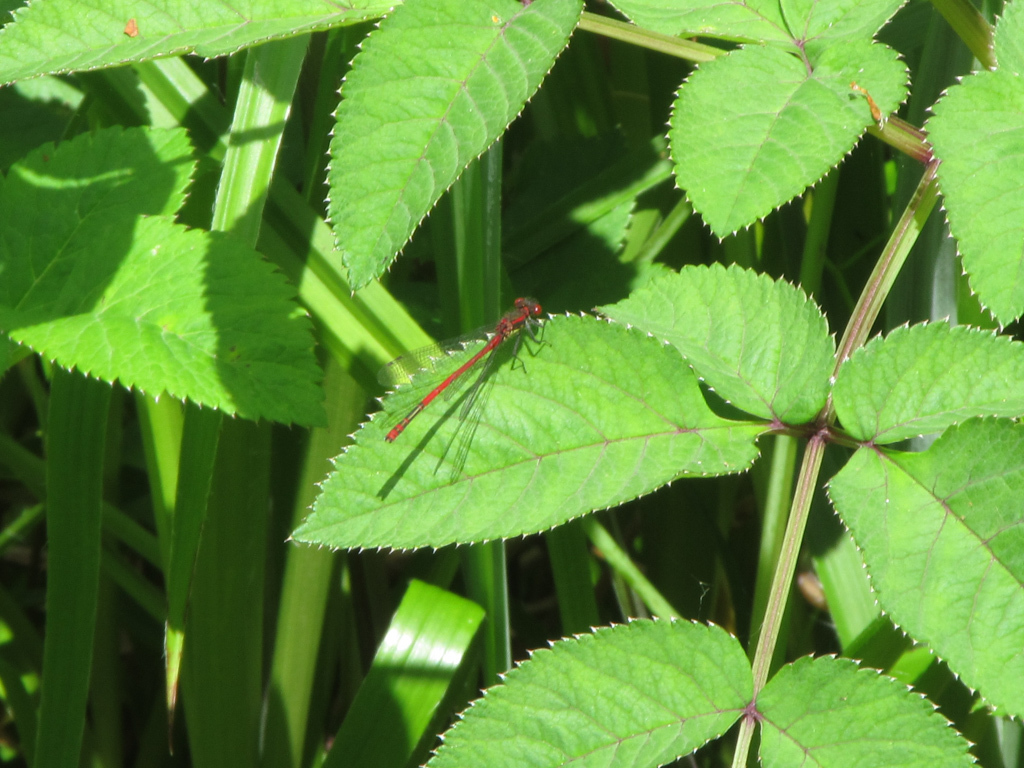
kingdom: Animalia
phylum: Arthropoda
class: Insecta
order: Odonata
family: Coenagrionidae
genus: Pyrrhosoma
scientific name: Pyrrhosoma nymphula
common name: Large red damsel
